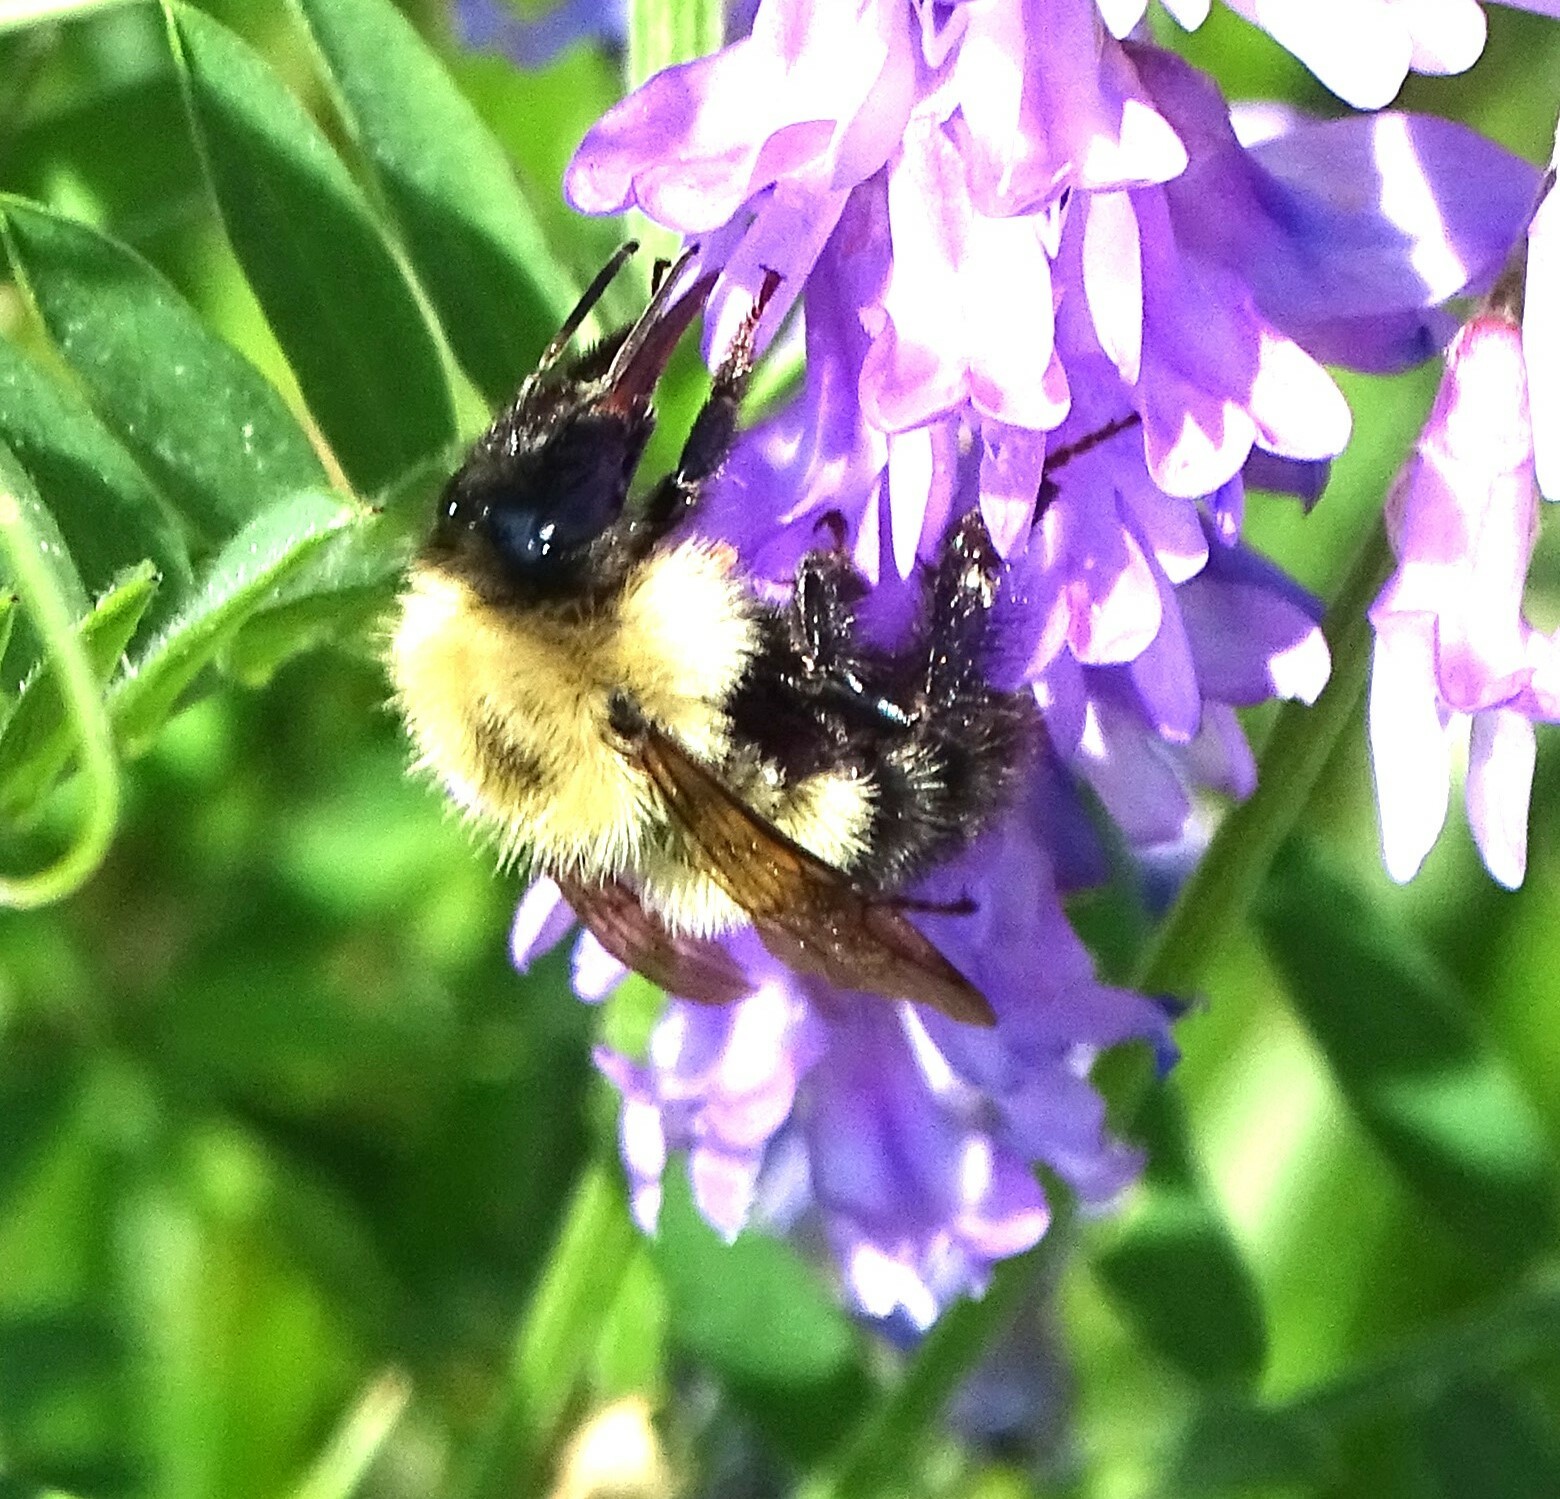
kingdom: Animalia
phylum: Arthropoda
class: Insecta
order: Hymenoptera
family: Apidae
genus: Bombus
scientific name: Bombus vagans
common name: Half-black bumble bee
